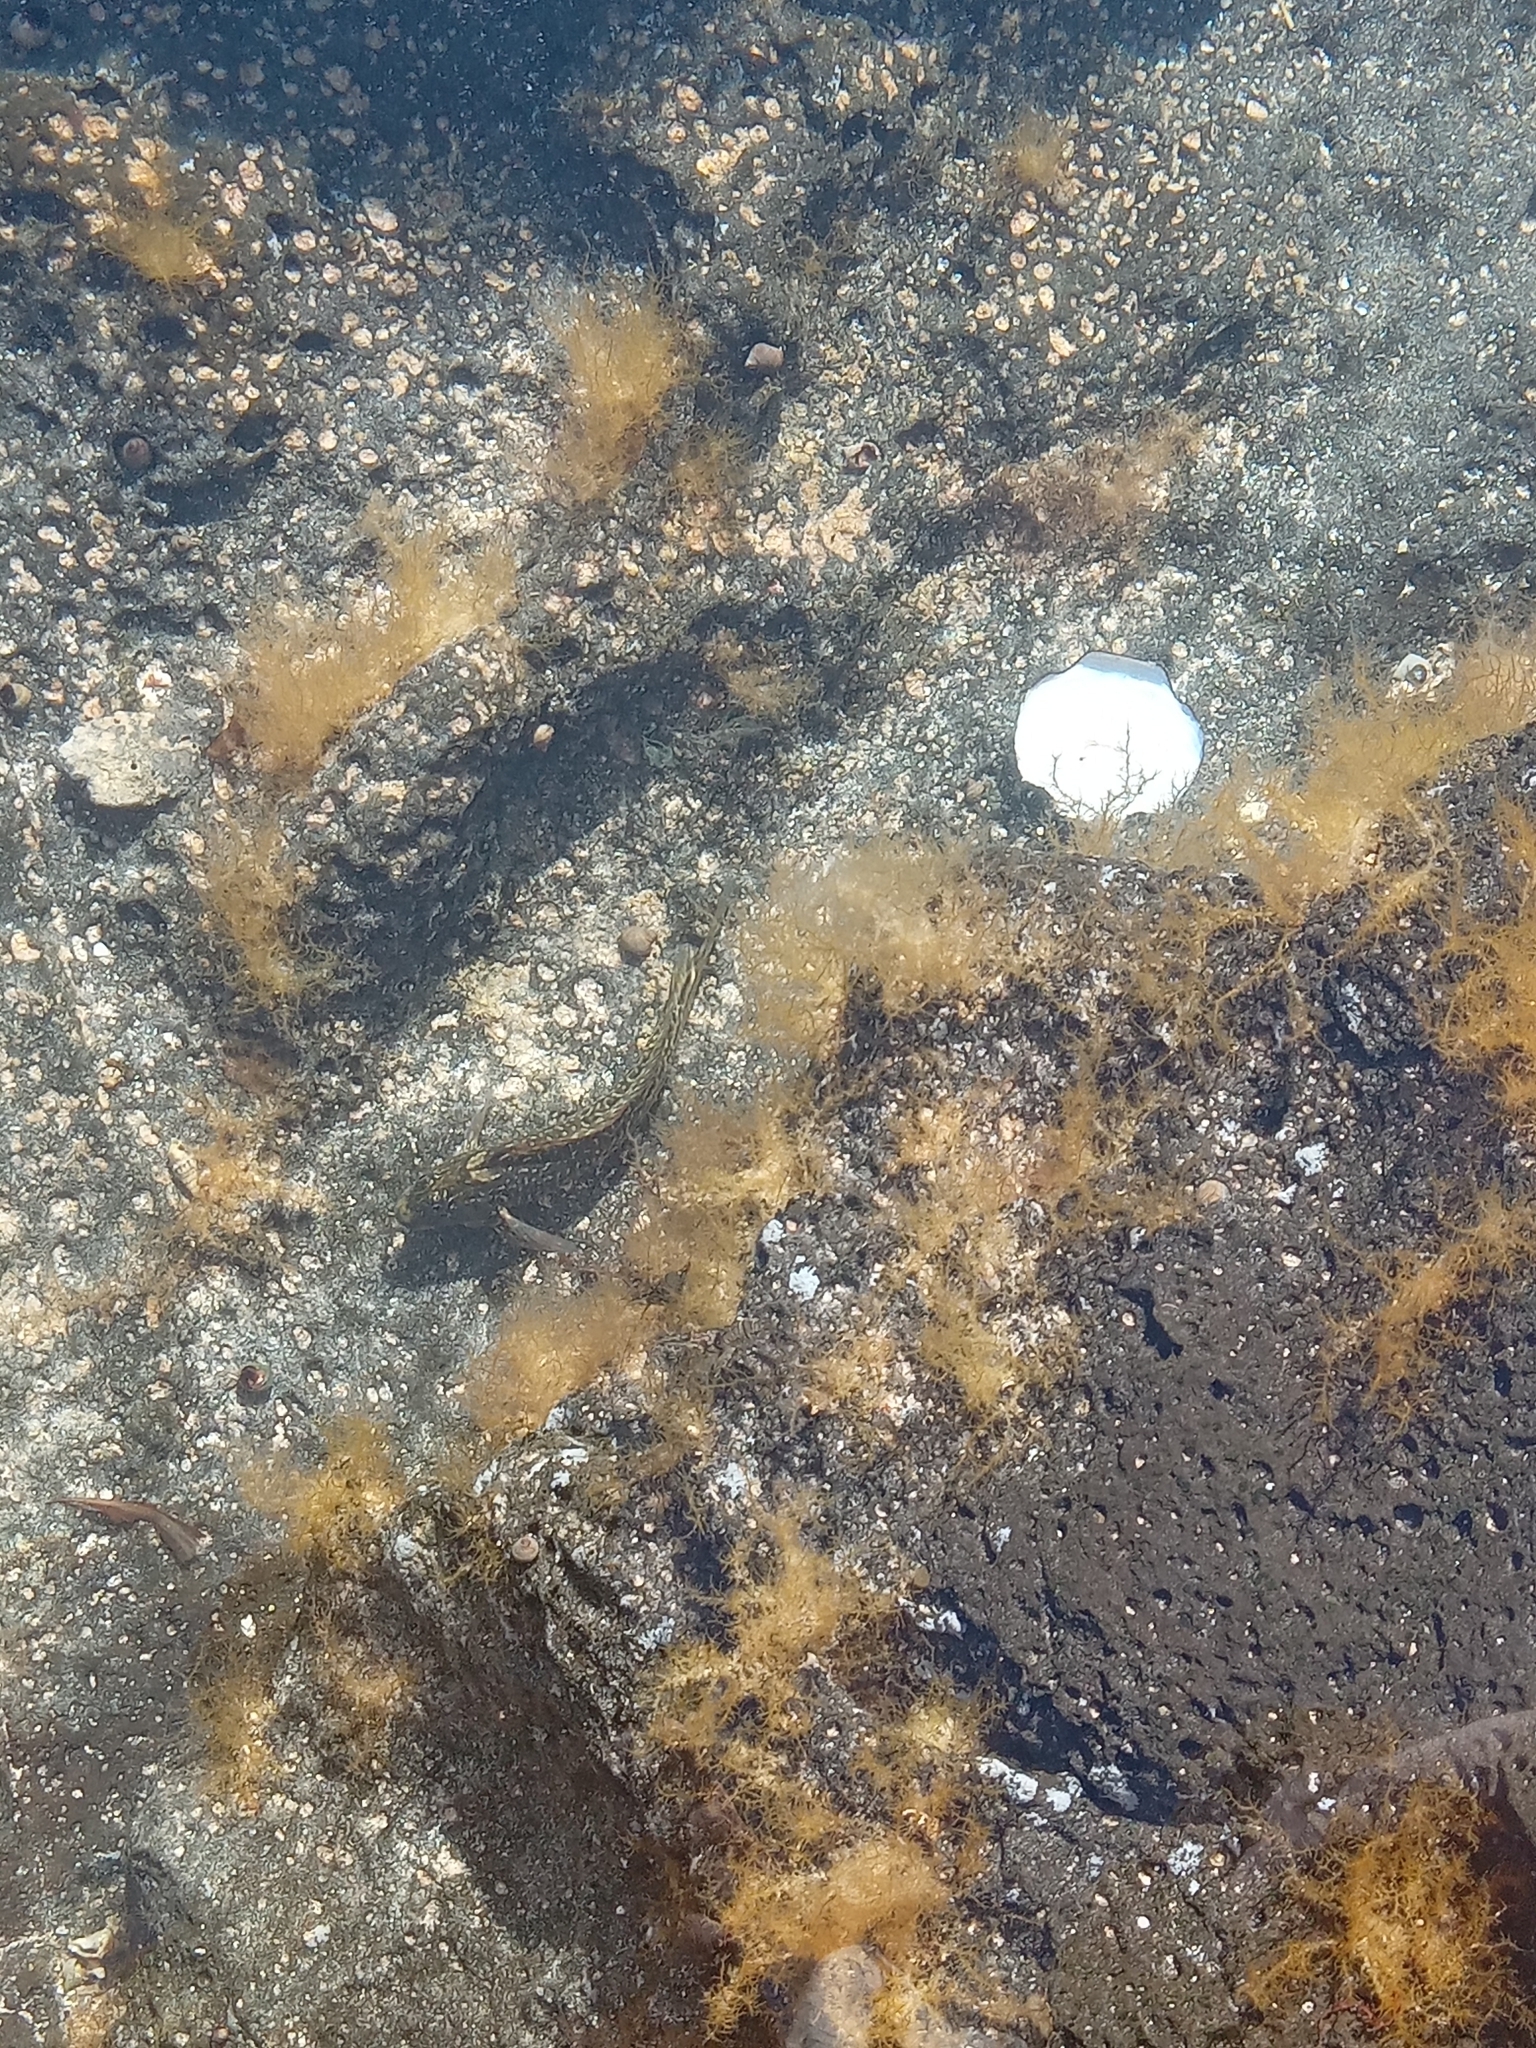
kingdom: Animalia
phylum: Chordata
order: Perciformes
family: Blenniidae
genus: Parablennius
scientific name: Parablennius parvicornis
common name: Rock-pool blenny
